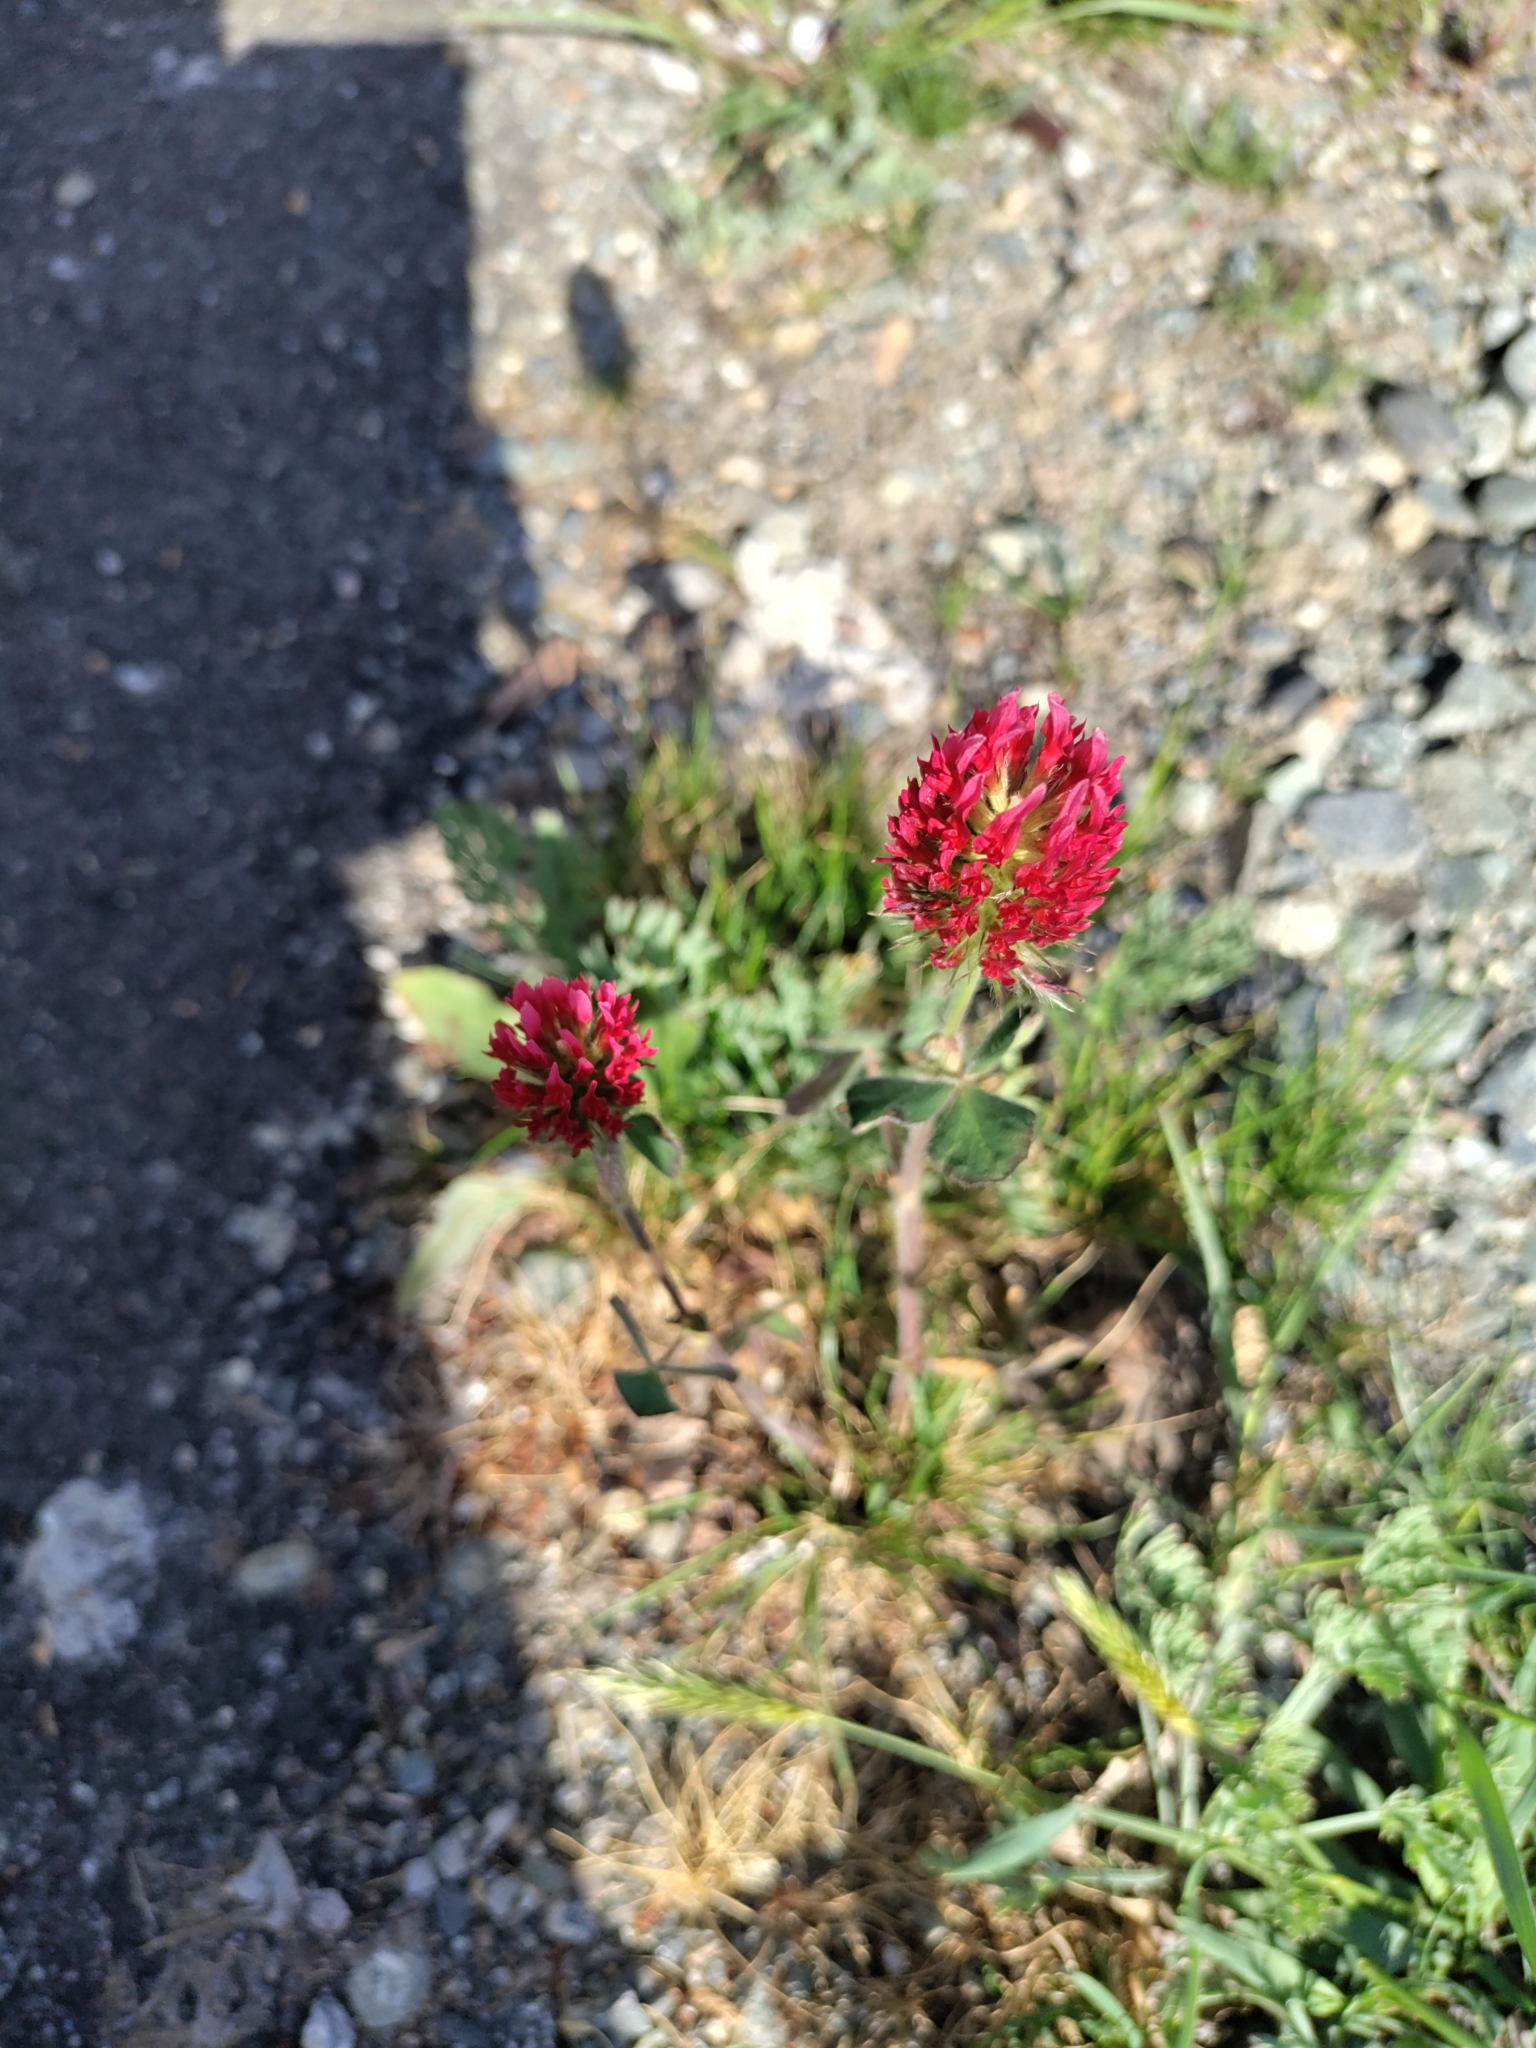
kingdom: Plantae
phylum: Tracheophyta
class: Magnoliopsida
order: Fabales
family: Fabaceae
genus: Trifolium
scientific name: Trifolium incarnatum
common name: Crimson clover
